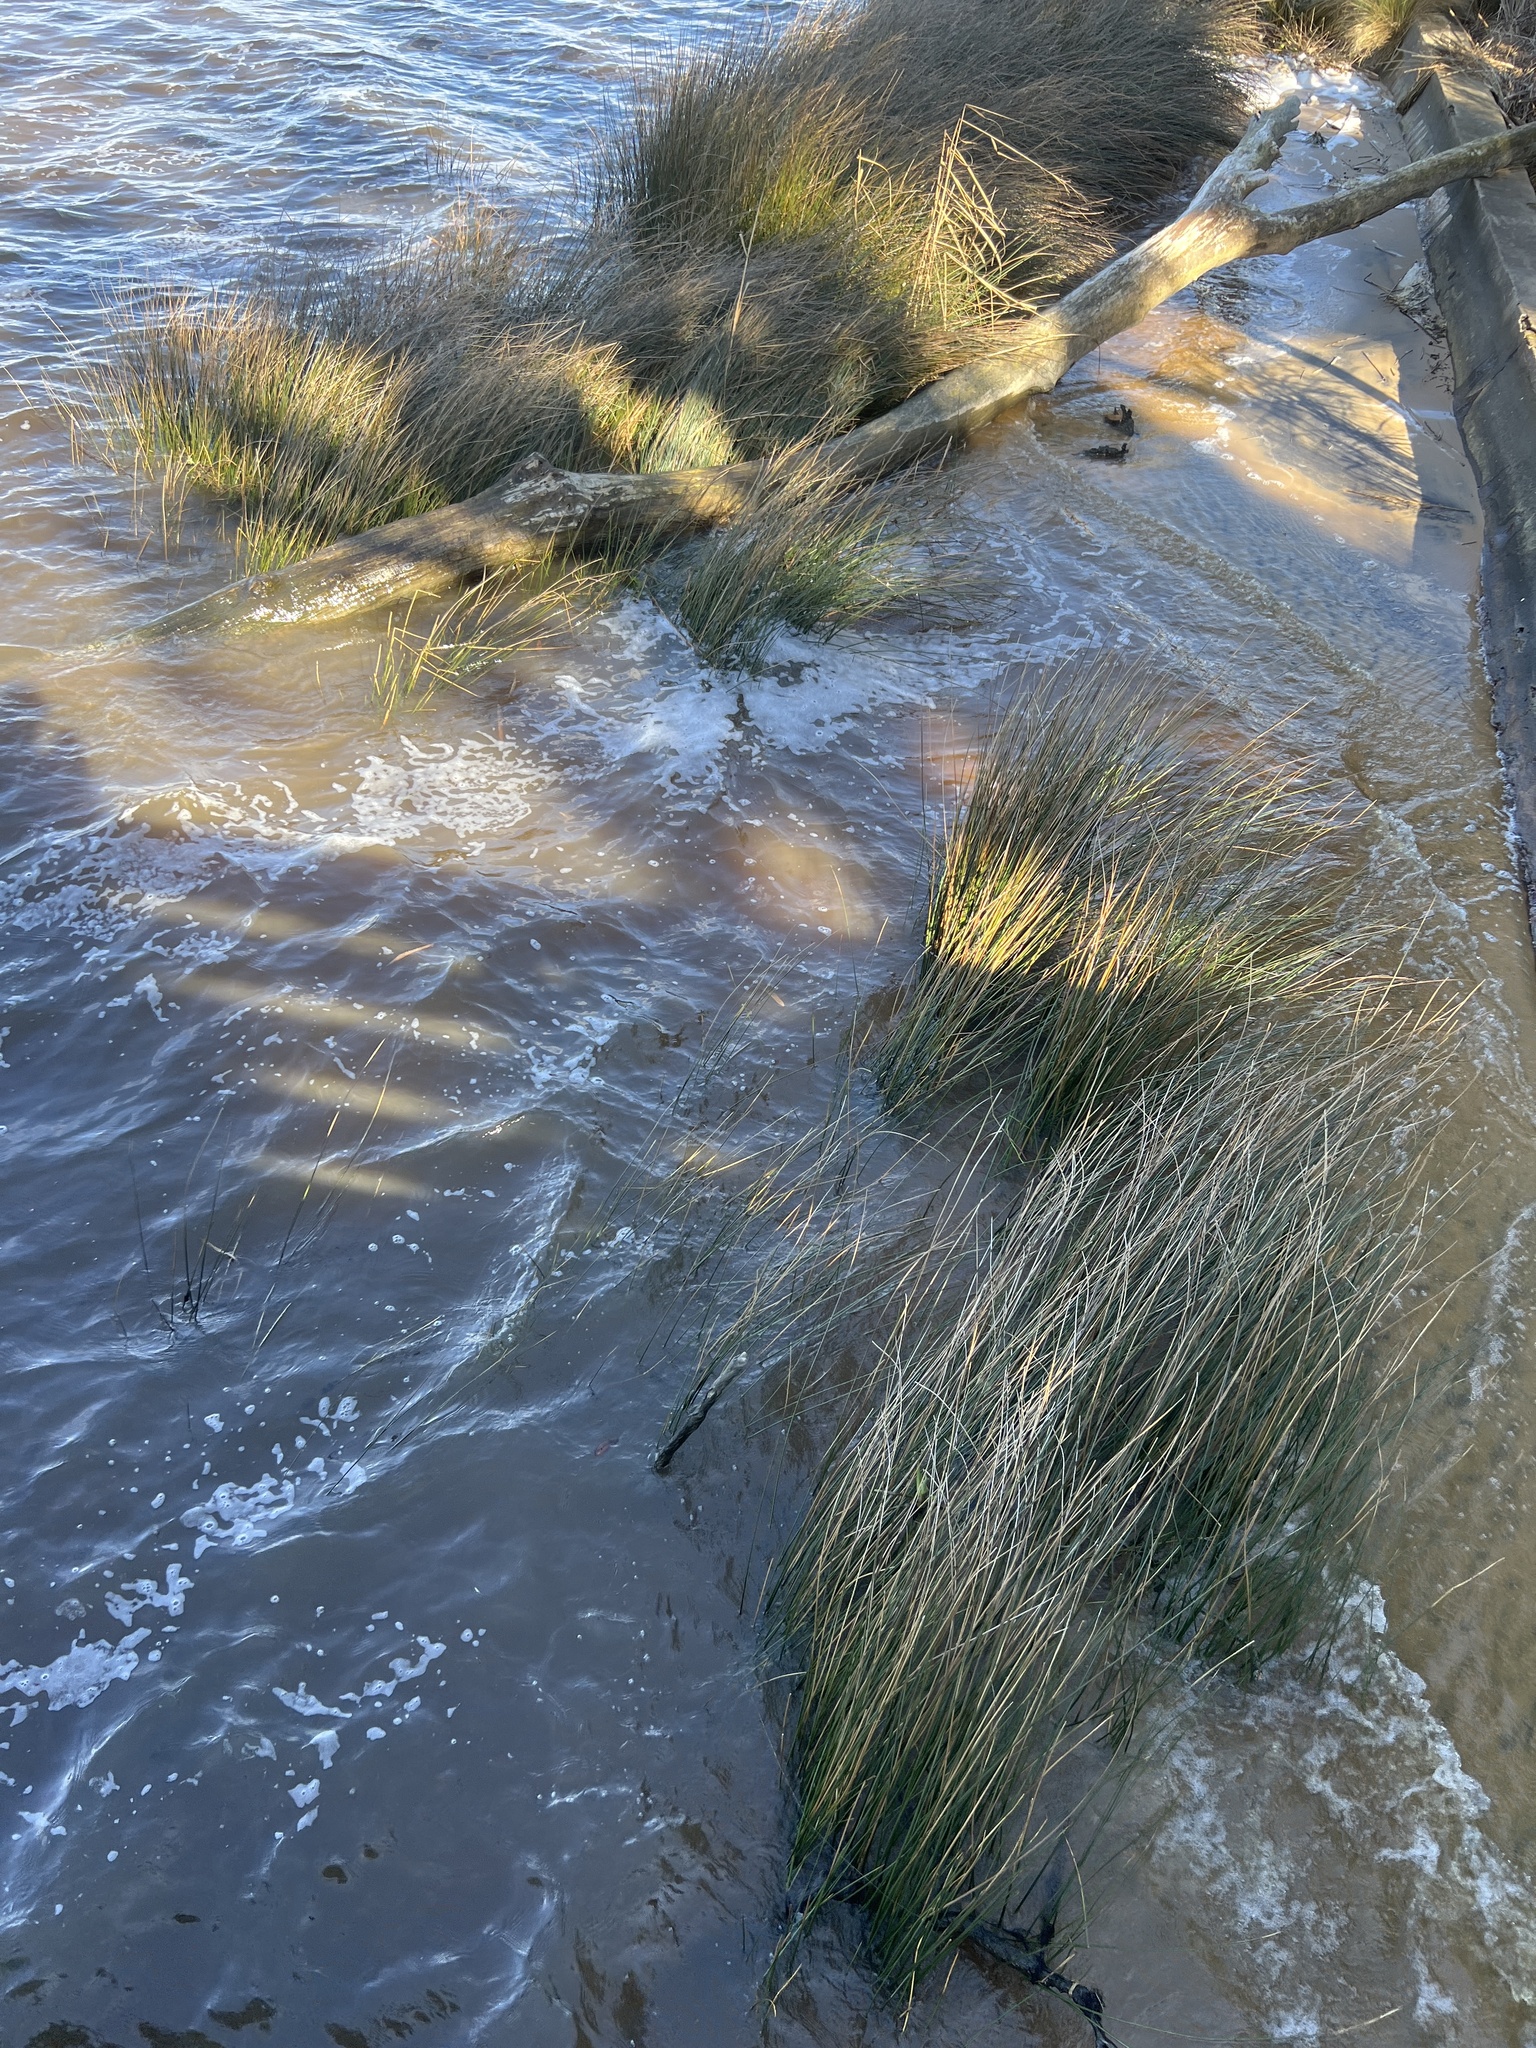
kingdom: Plantae
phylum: Tracheophyta
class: Liliopsida
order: Poales
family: Juncaceae
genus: Juncus
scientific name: Juncus roemerianus
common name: Roemer's rush
